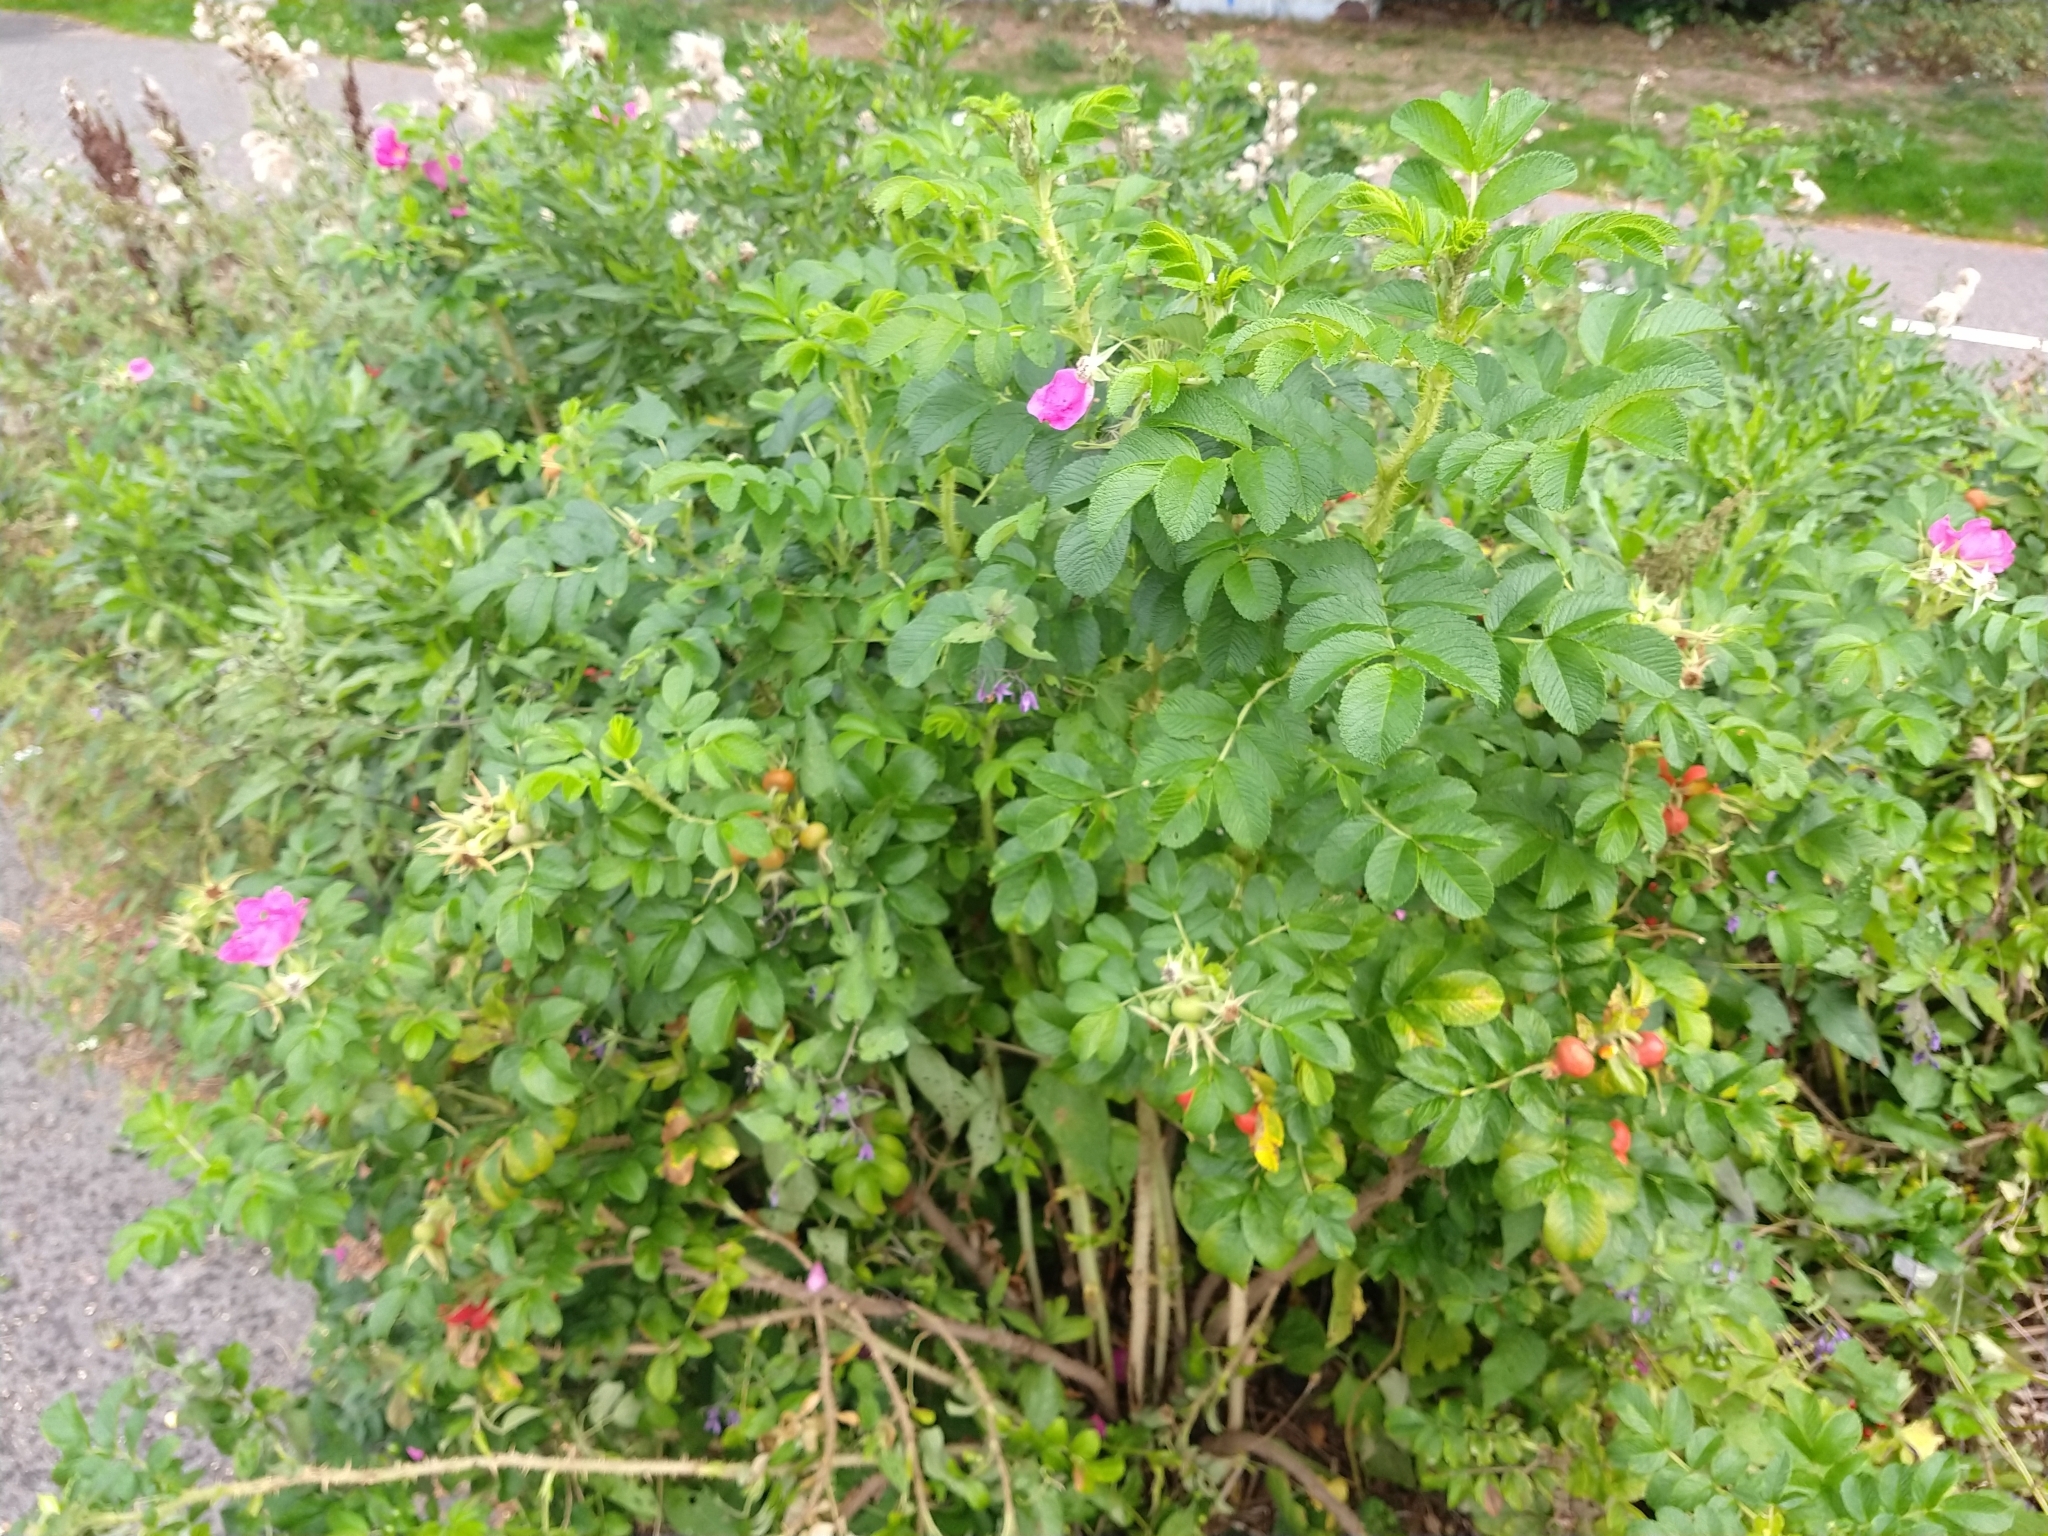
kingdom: Plantae
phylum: Tracheophyta
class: Magnoliopsida
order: Rosales
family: Rosaceae
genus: Rosa
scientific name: Rosa rugosa
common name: Japanese rose
